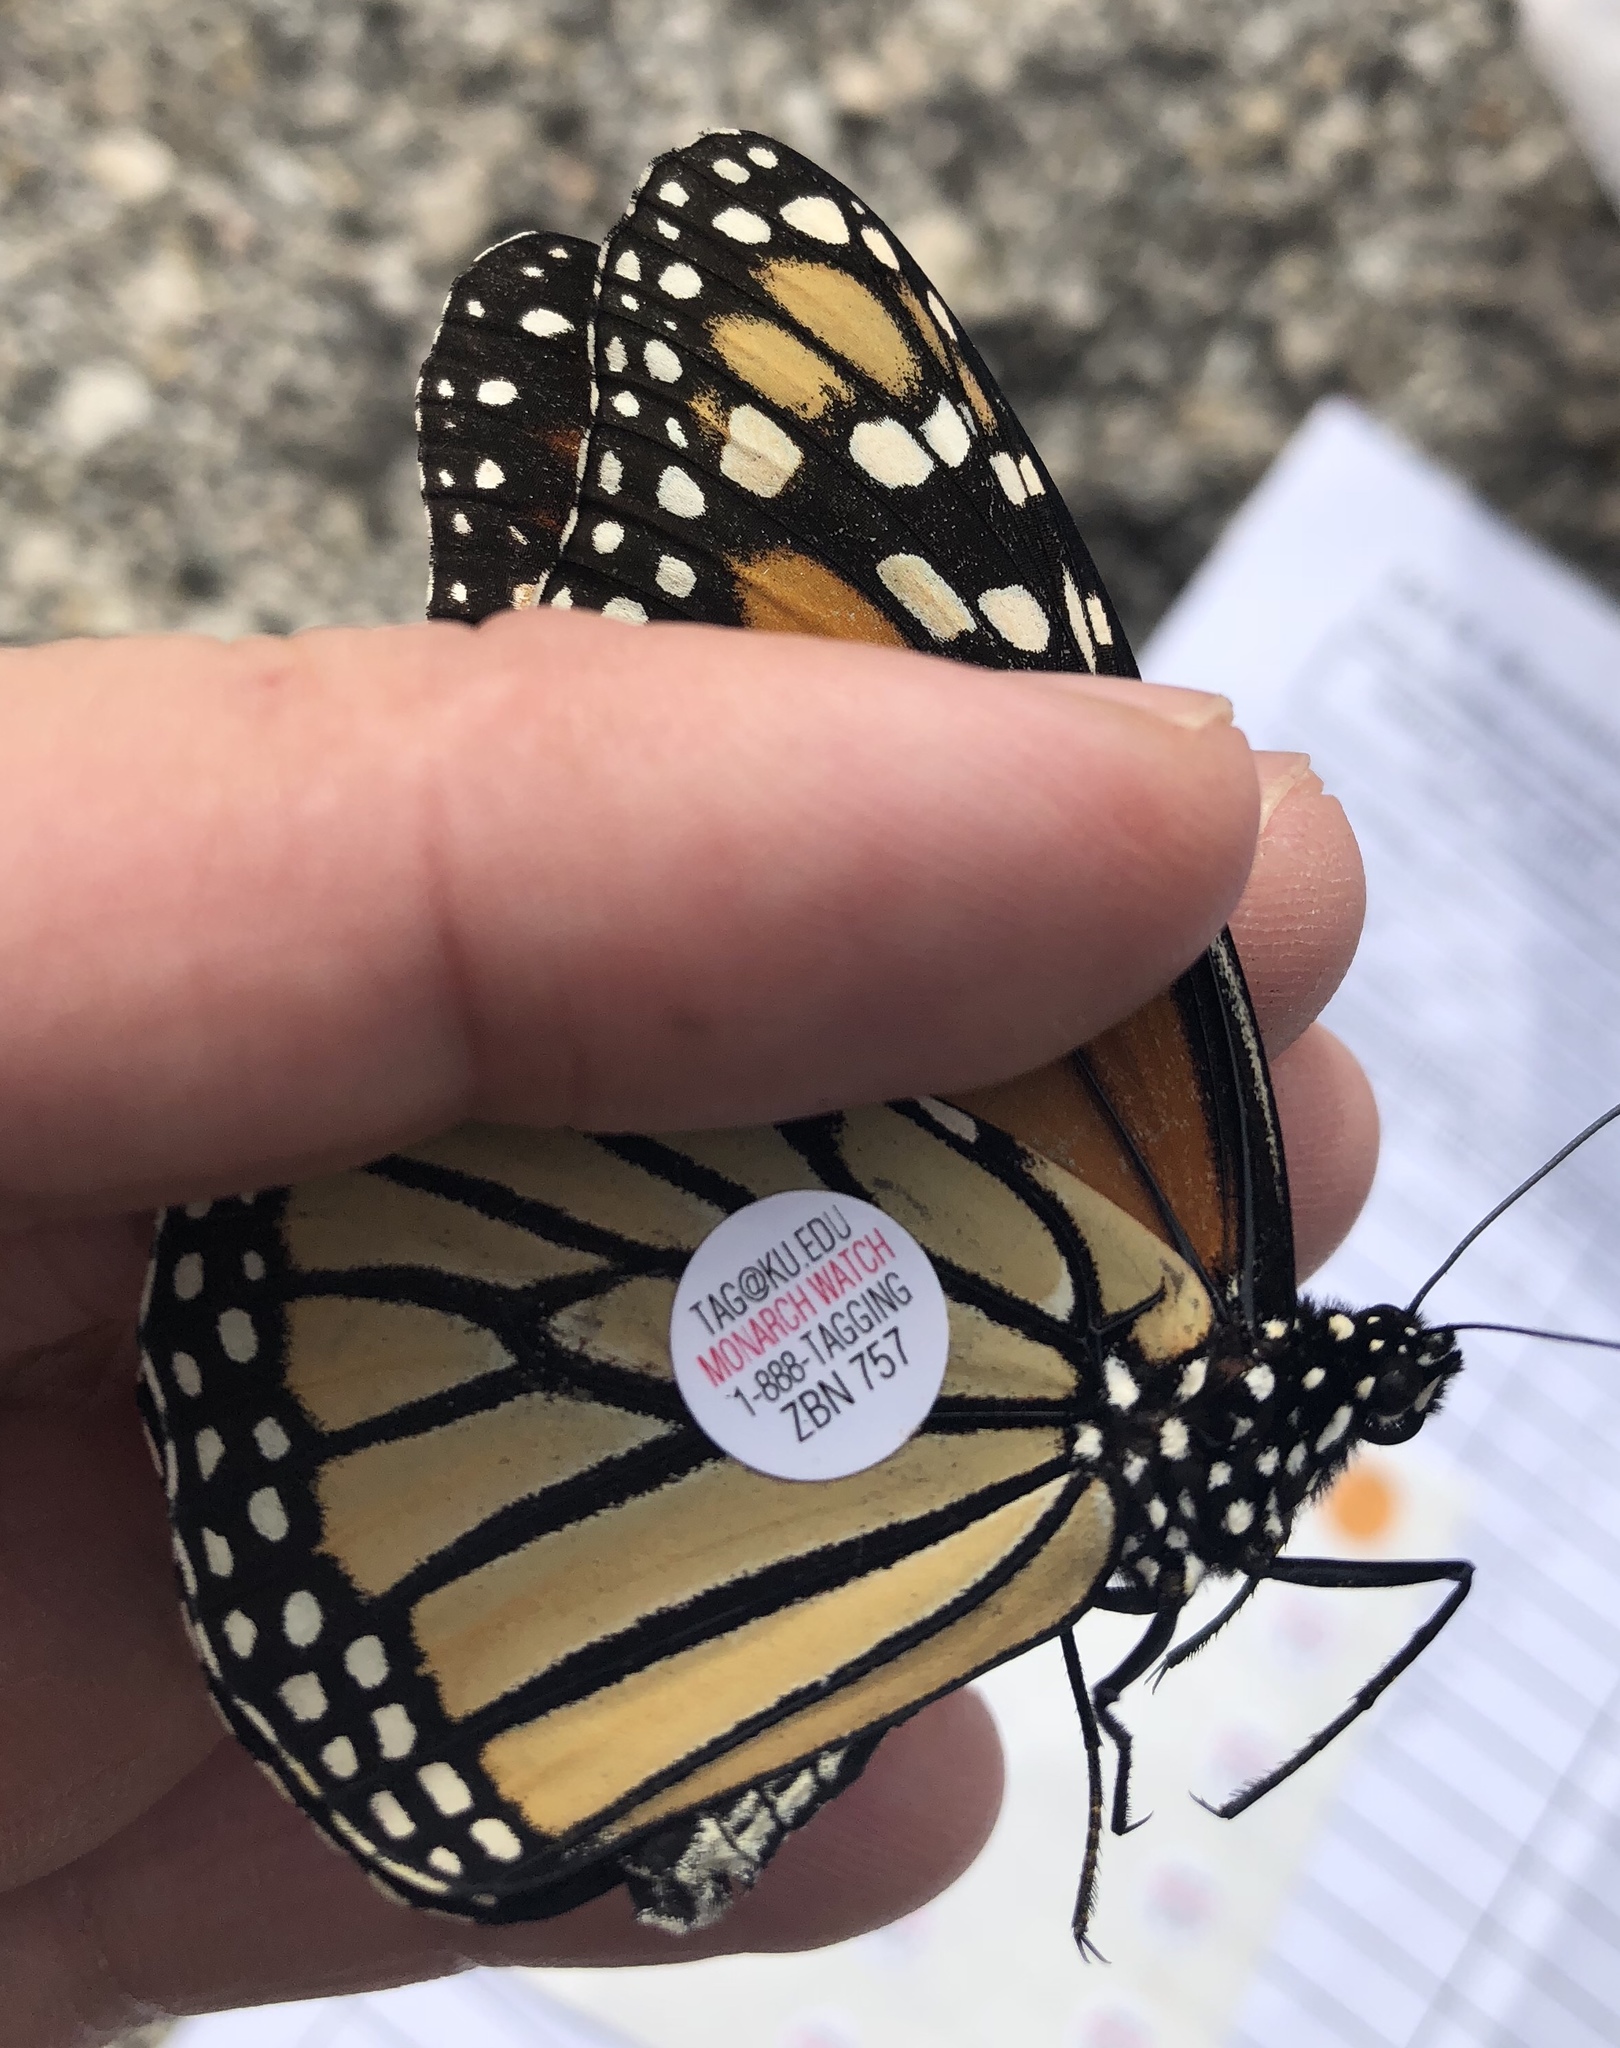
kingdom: Animalia
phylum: Arthropoda
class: Insecta
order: Lepidoptera
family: Nymphalidae
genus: Danaus
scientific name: Danaus plexippus
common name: Monarch
